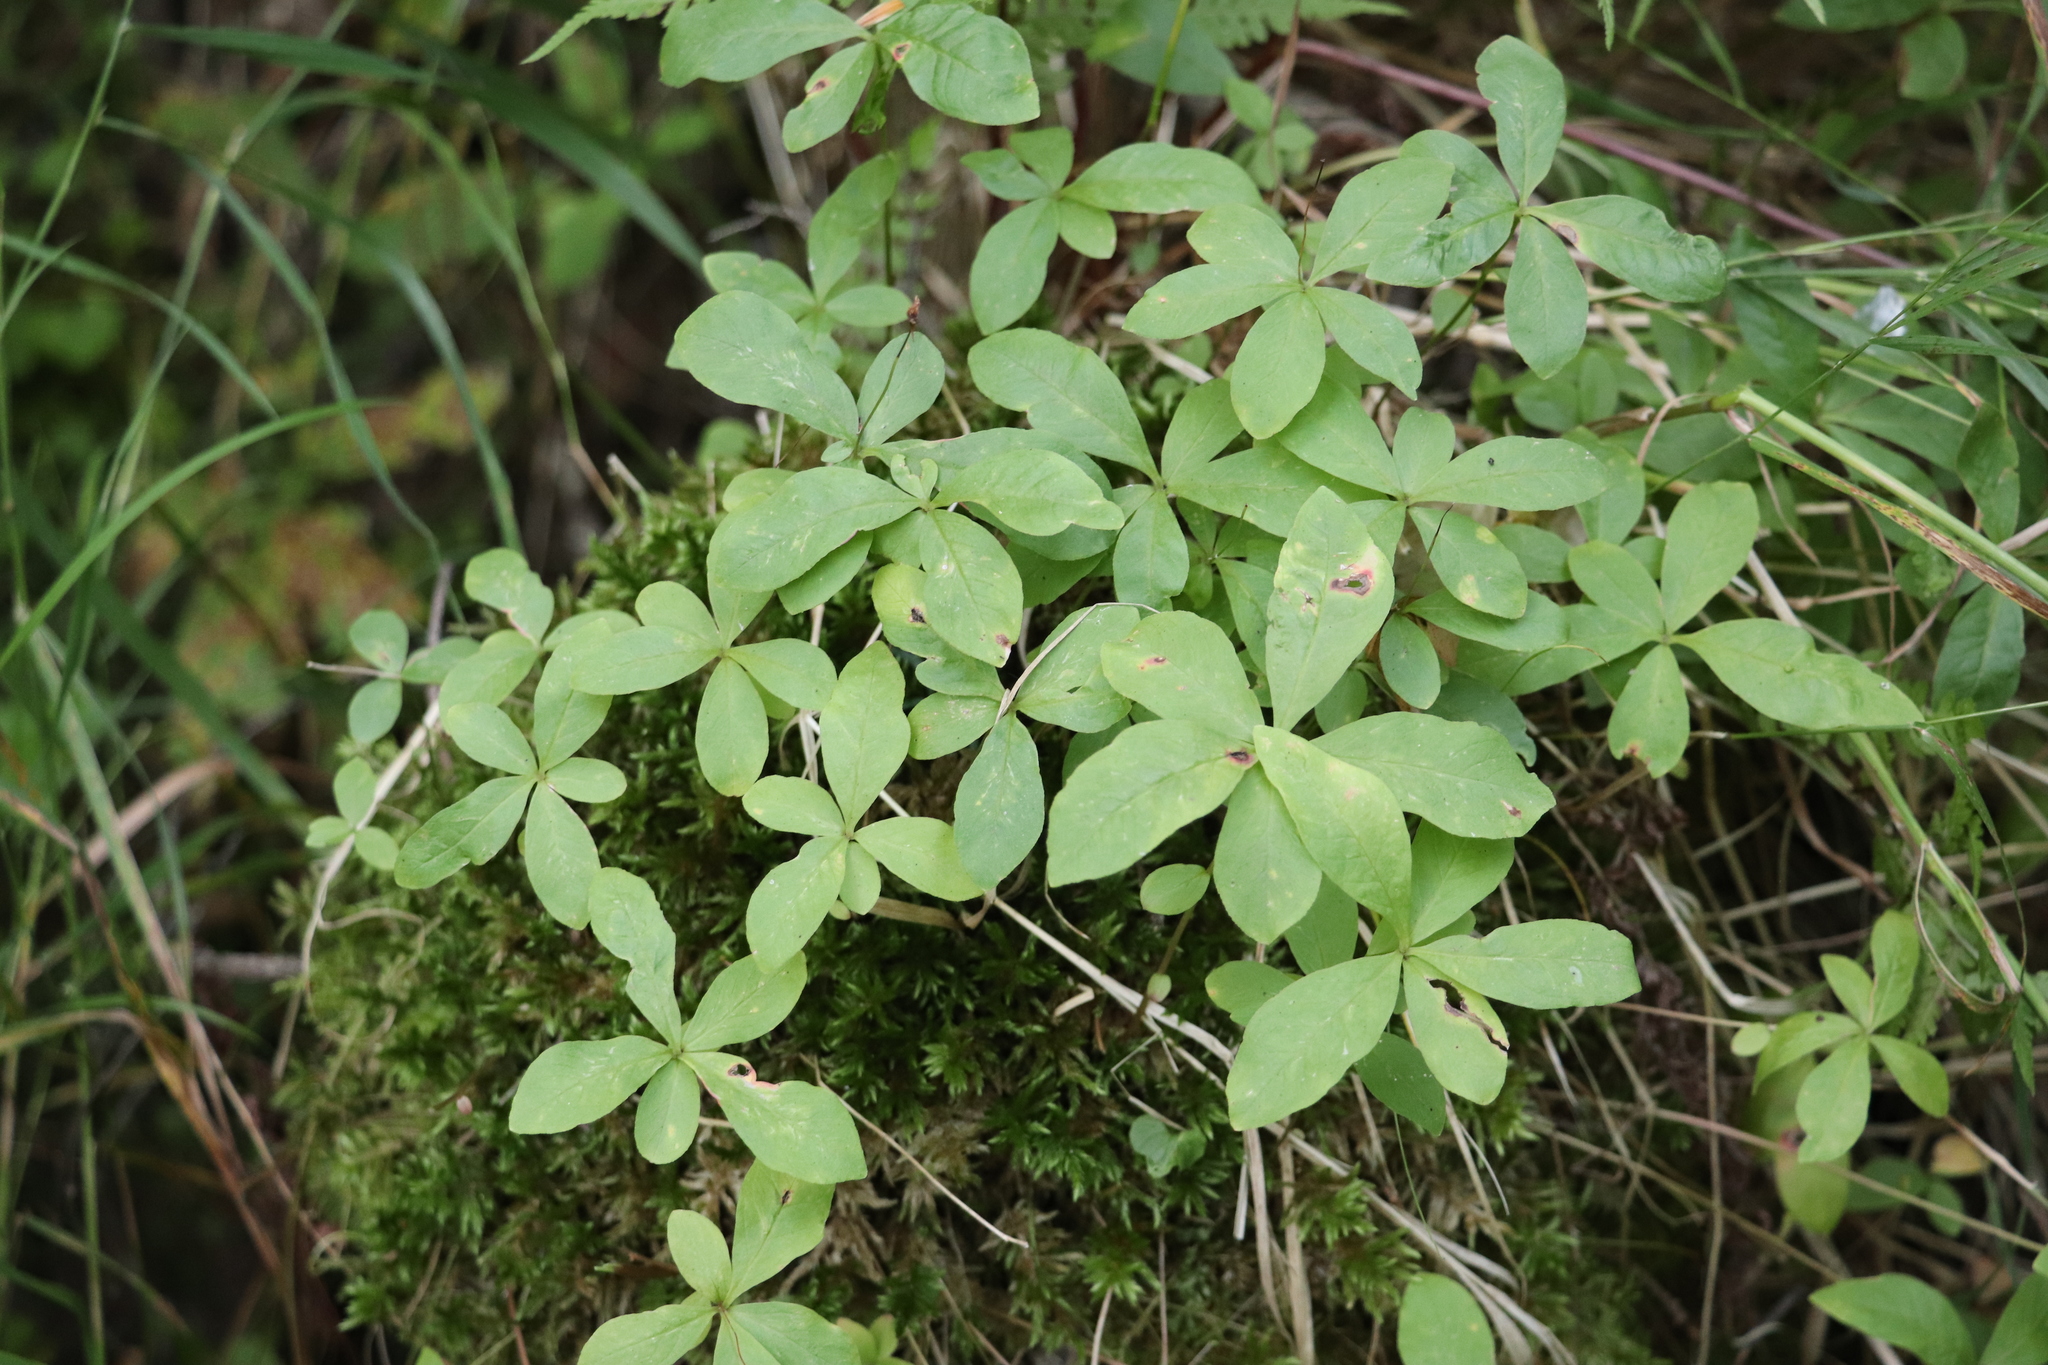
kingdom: Plantae
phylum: Tracheophyta
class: Magnoliopsida
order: Ericales
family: Primulaceae
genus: Lysimachia
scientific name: Lysimachia europaea
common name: Arctic starflower
